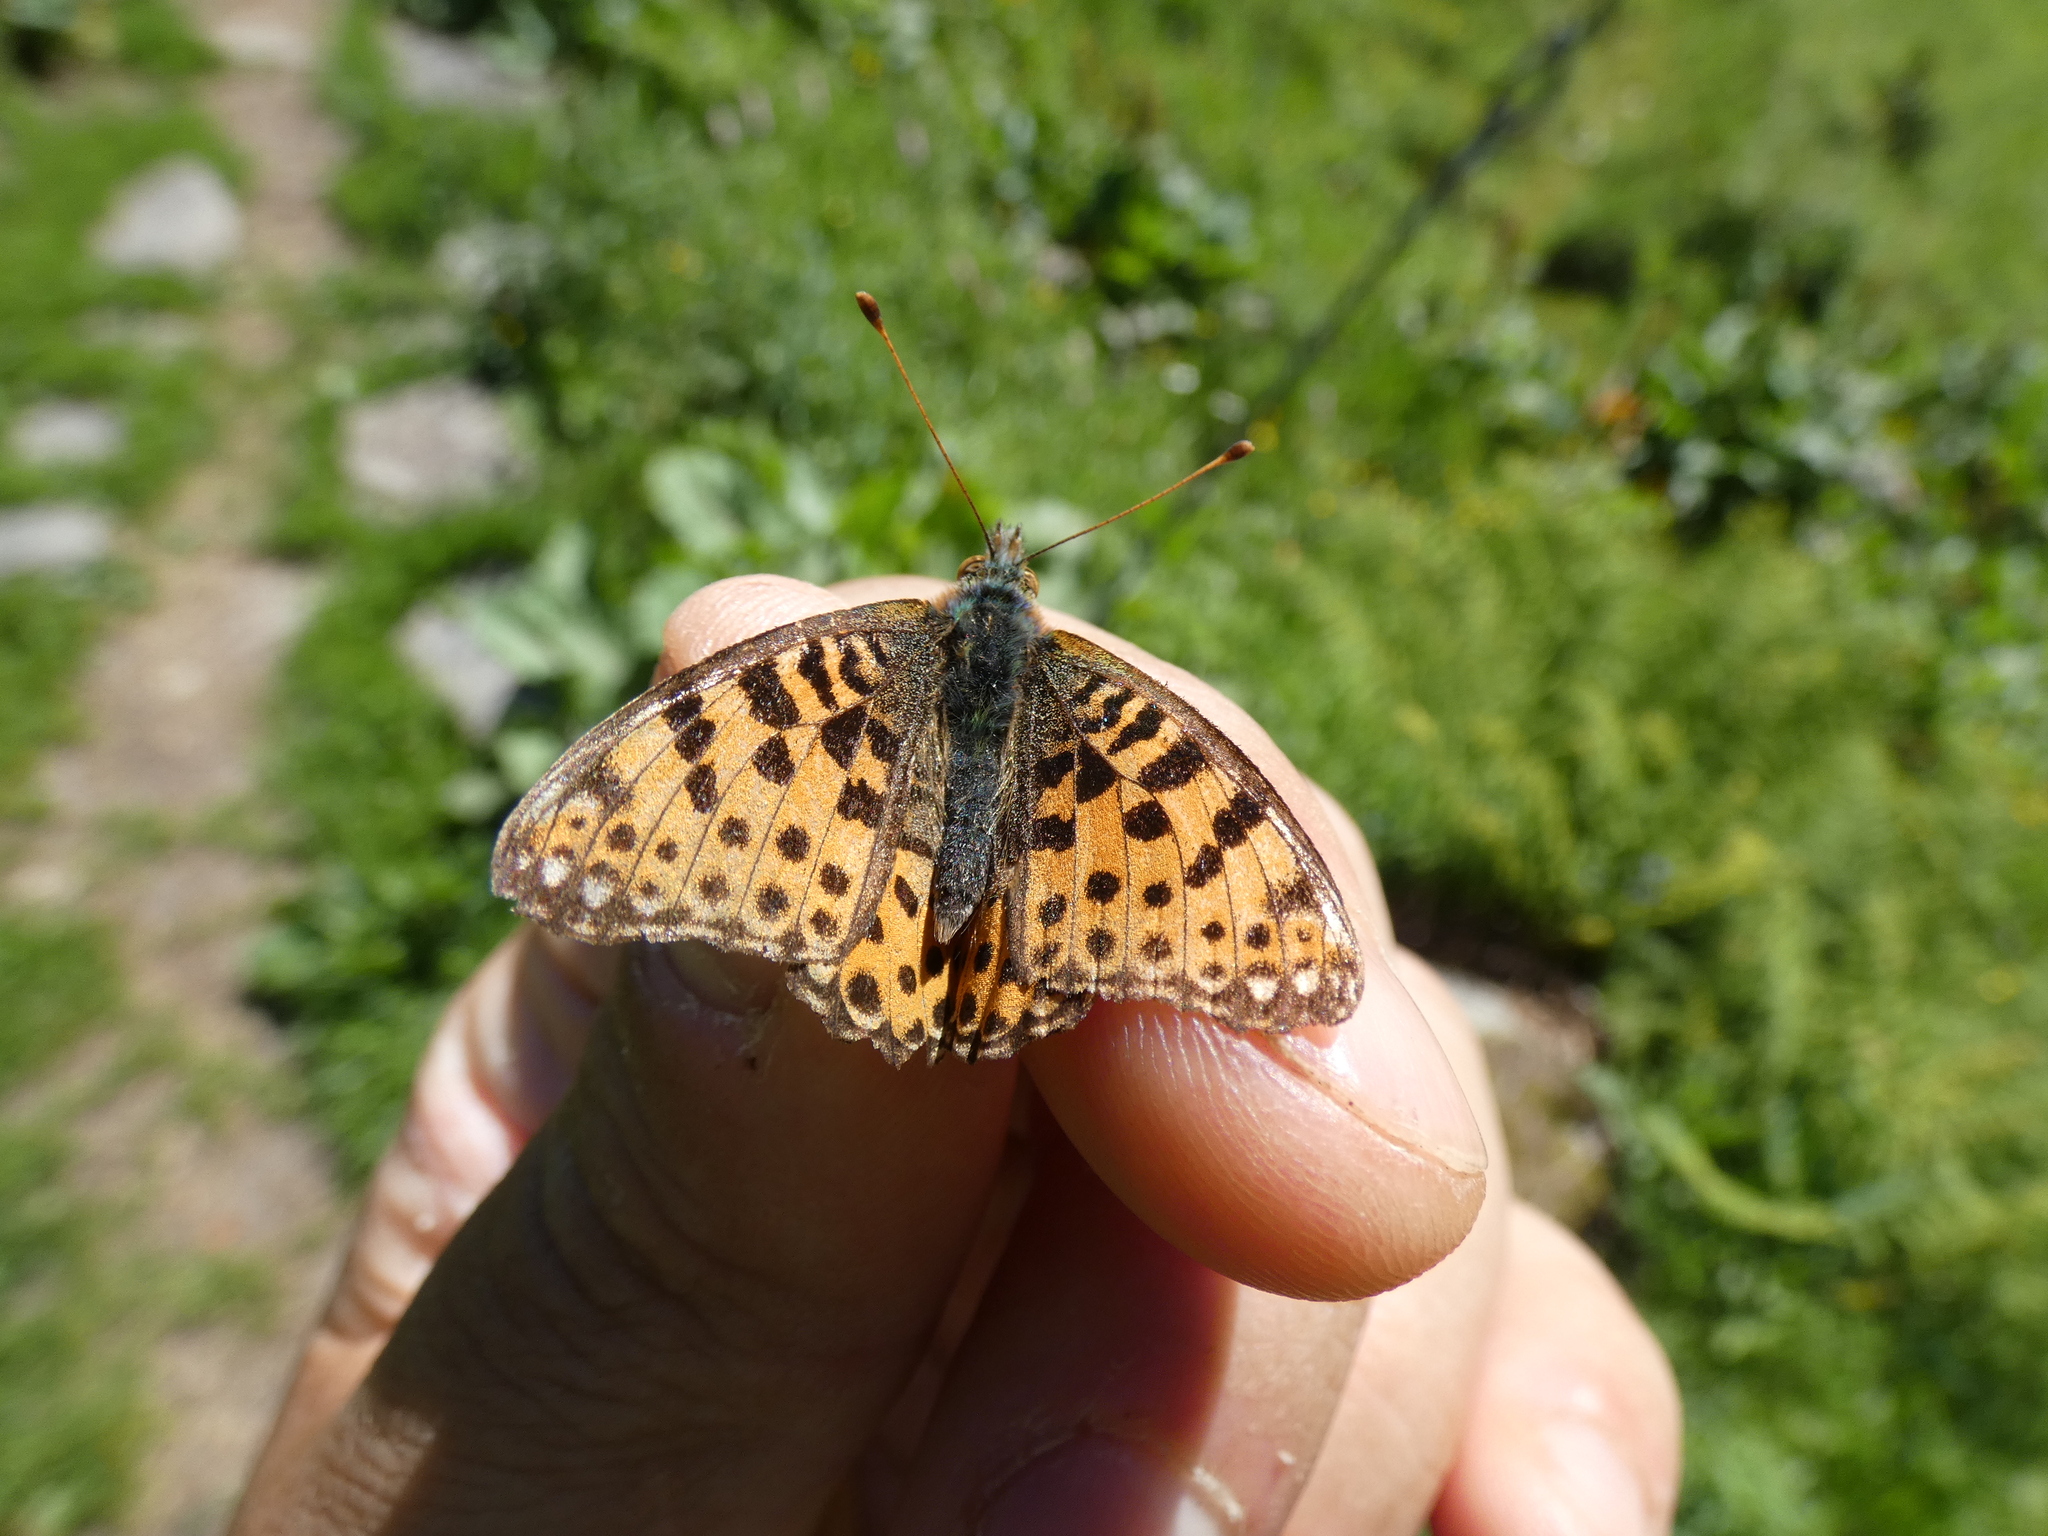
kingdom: Animalia
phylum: Arthropoda
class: Insecta
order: Lepidoptera
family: Nymphalidae
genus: Issoria
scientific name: Issoria lathonia
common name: Queen of spain fritillary
